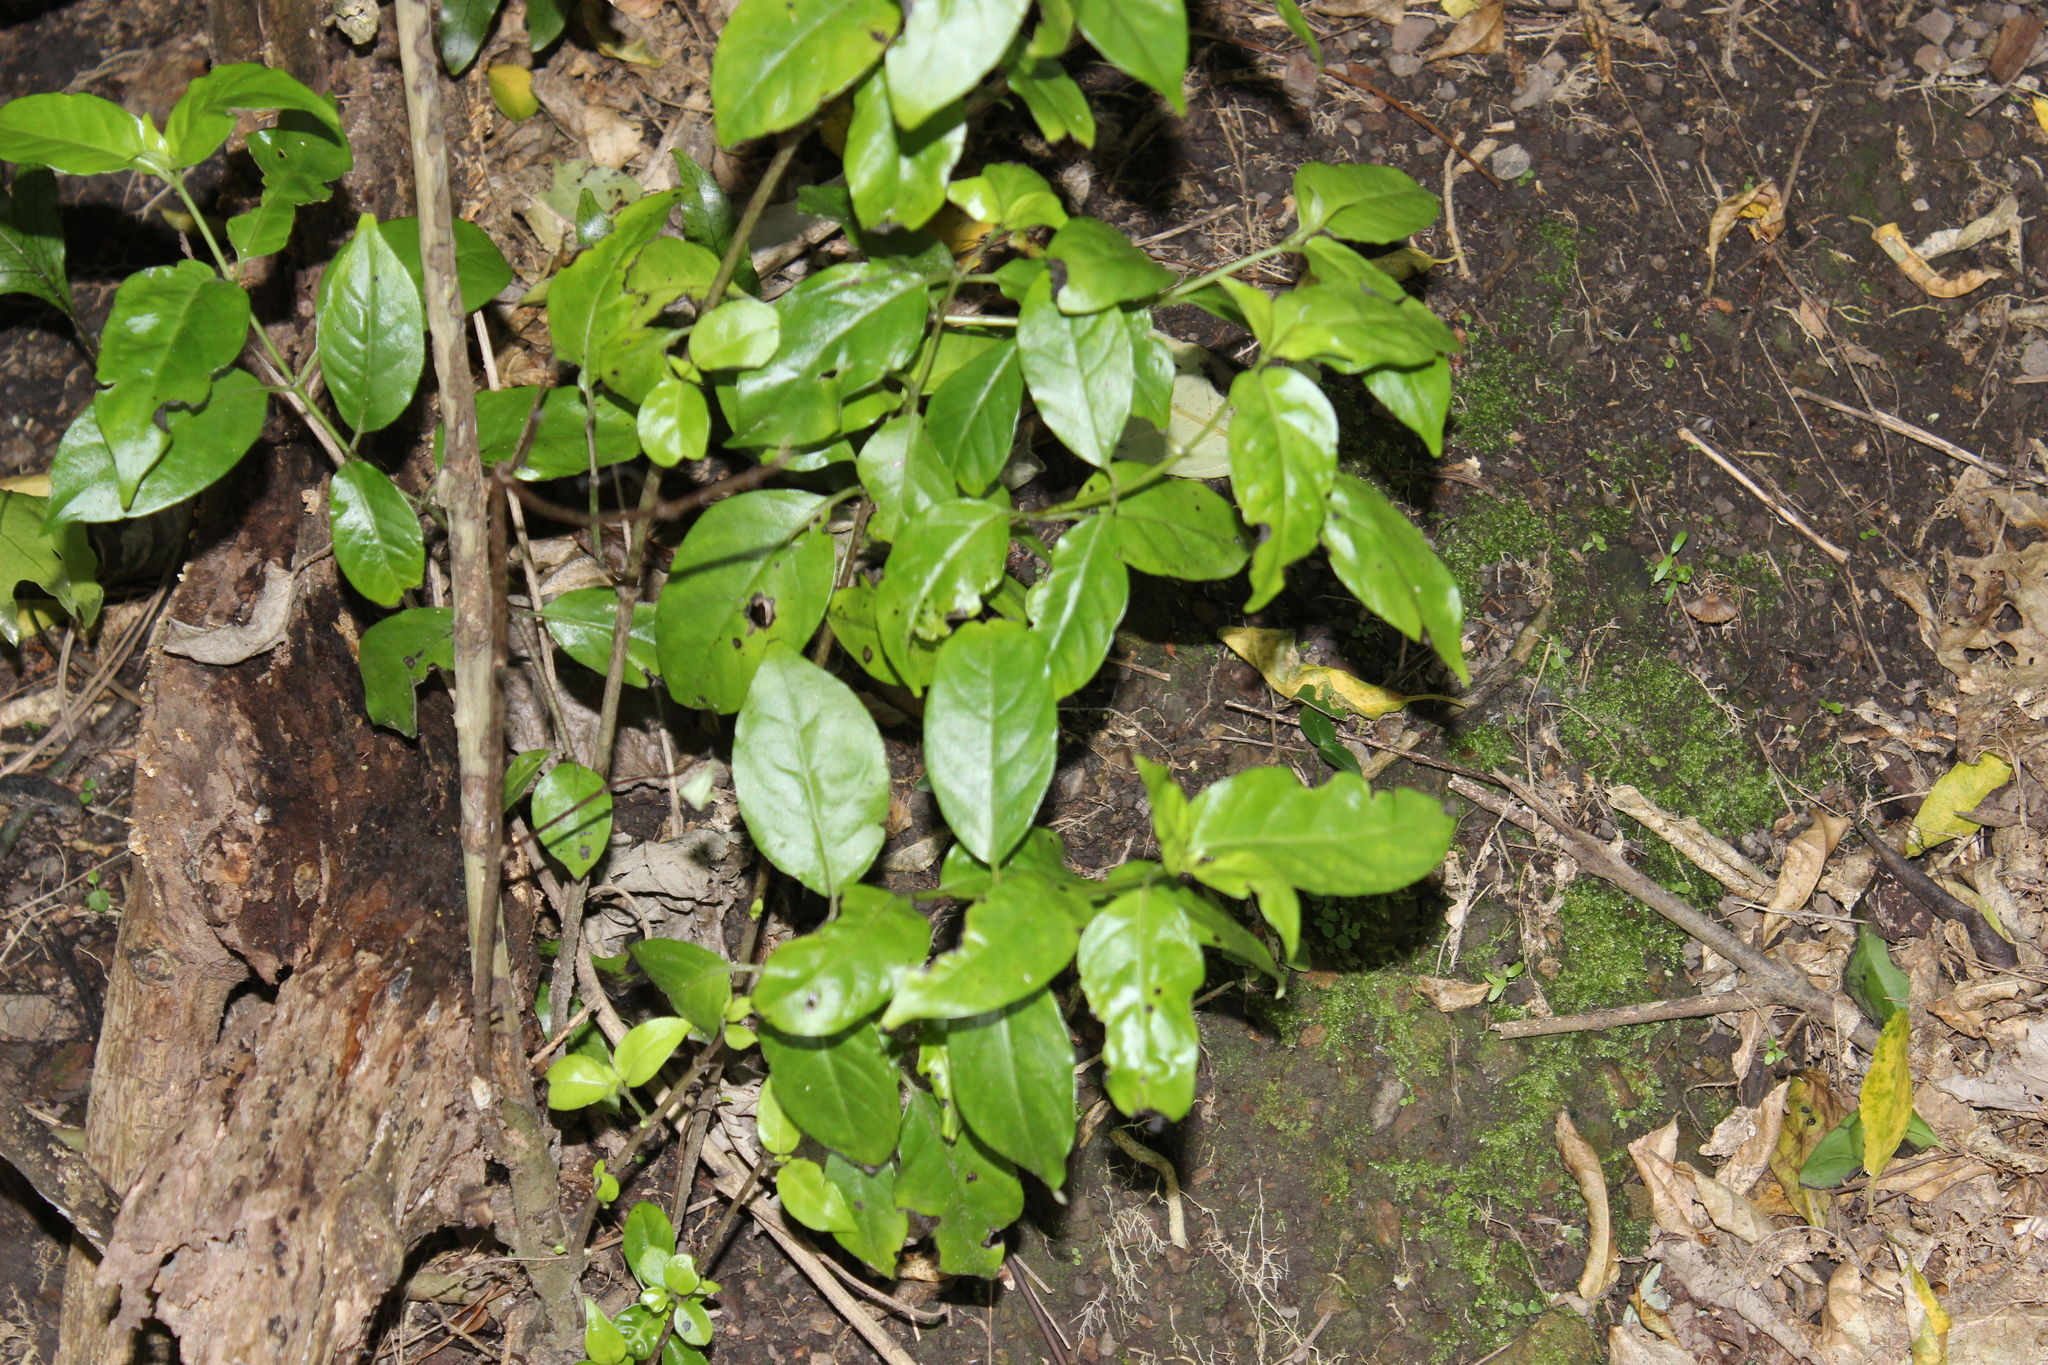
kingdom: Plantae
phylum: Tracheophyta
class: Magnoliopsida
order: Gentianales
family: Loganiaceae
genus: Geniostoma
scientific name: Geniostoma ligustrifolium
